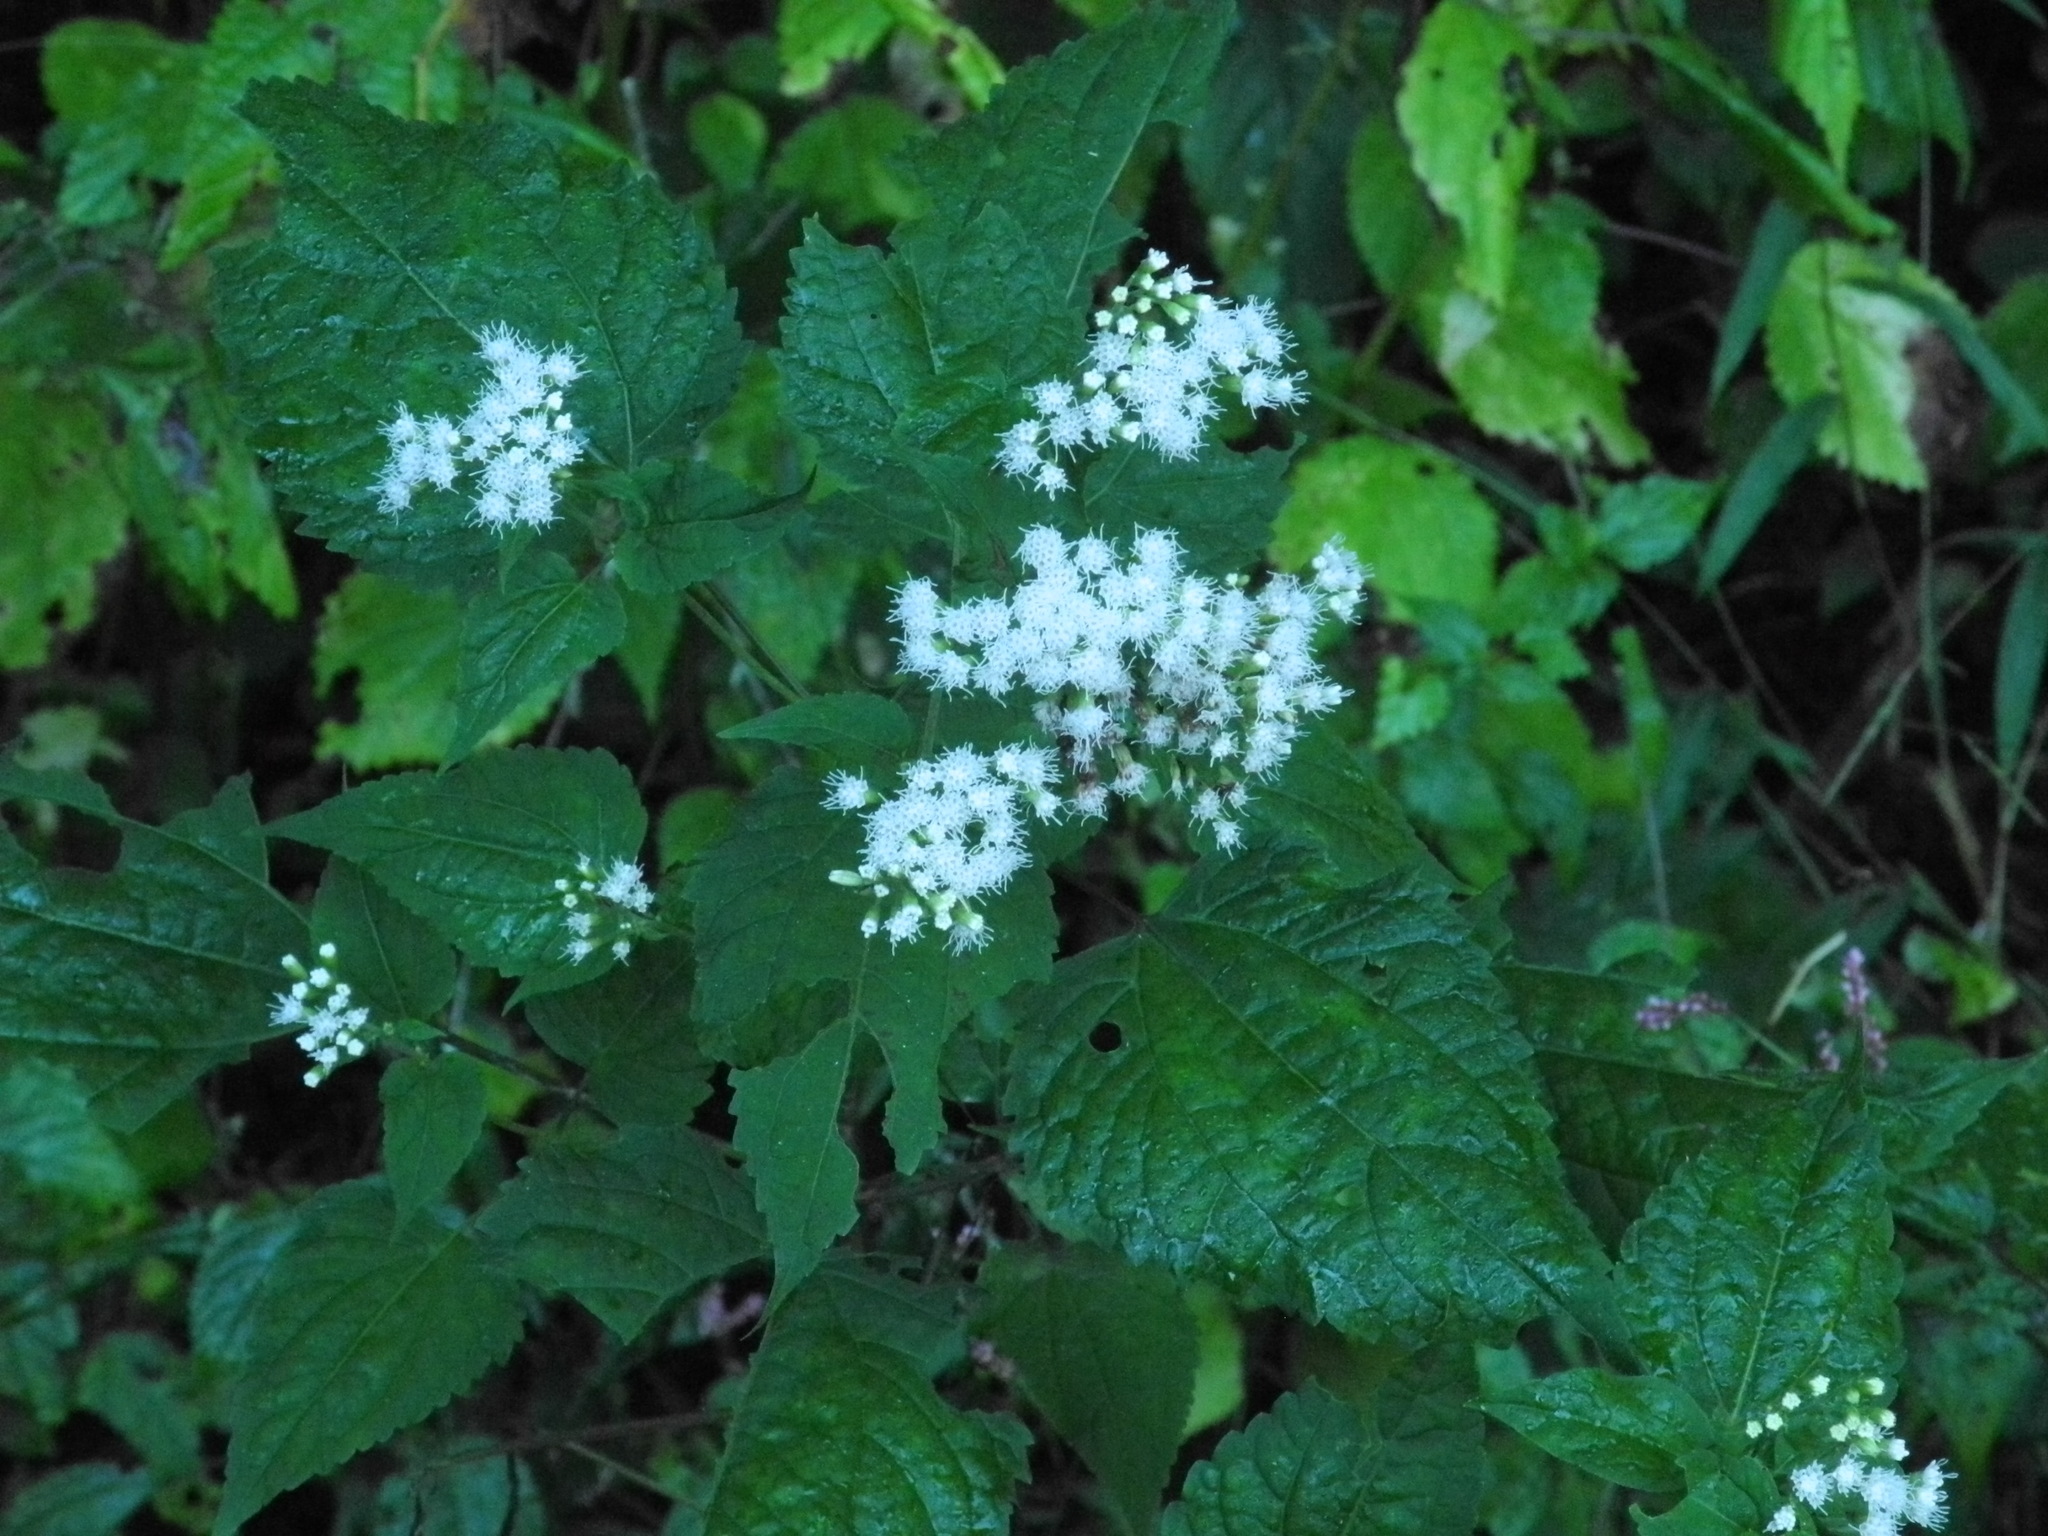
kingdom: Plantae
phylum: Tracheophyta
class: Magnoliopsida
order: Asterales
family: Asteraceae
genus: Ageratina
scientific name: Ageratina altissima
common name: White snakeroot
